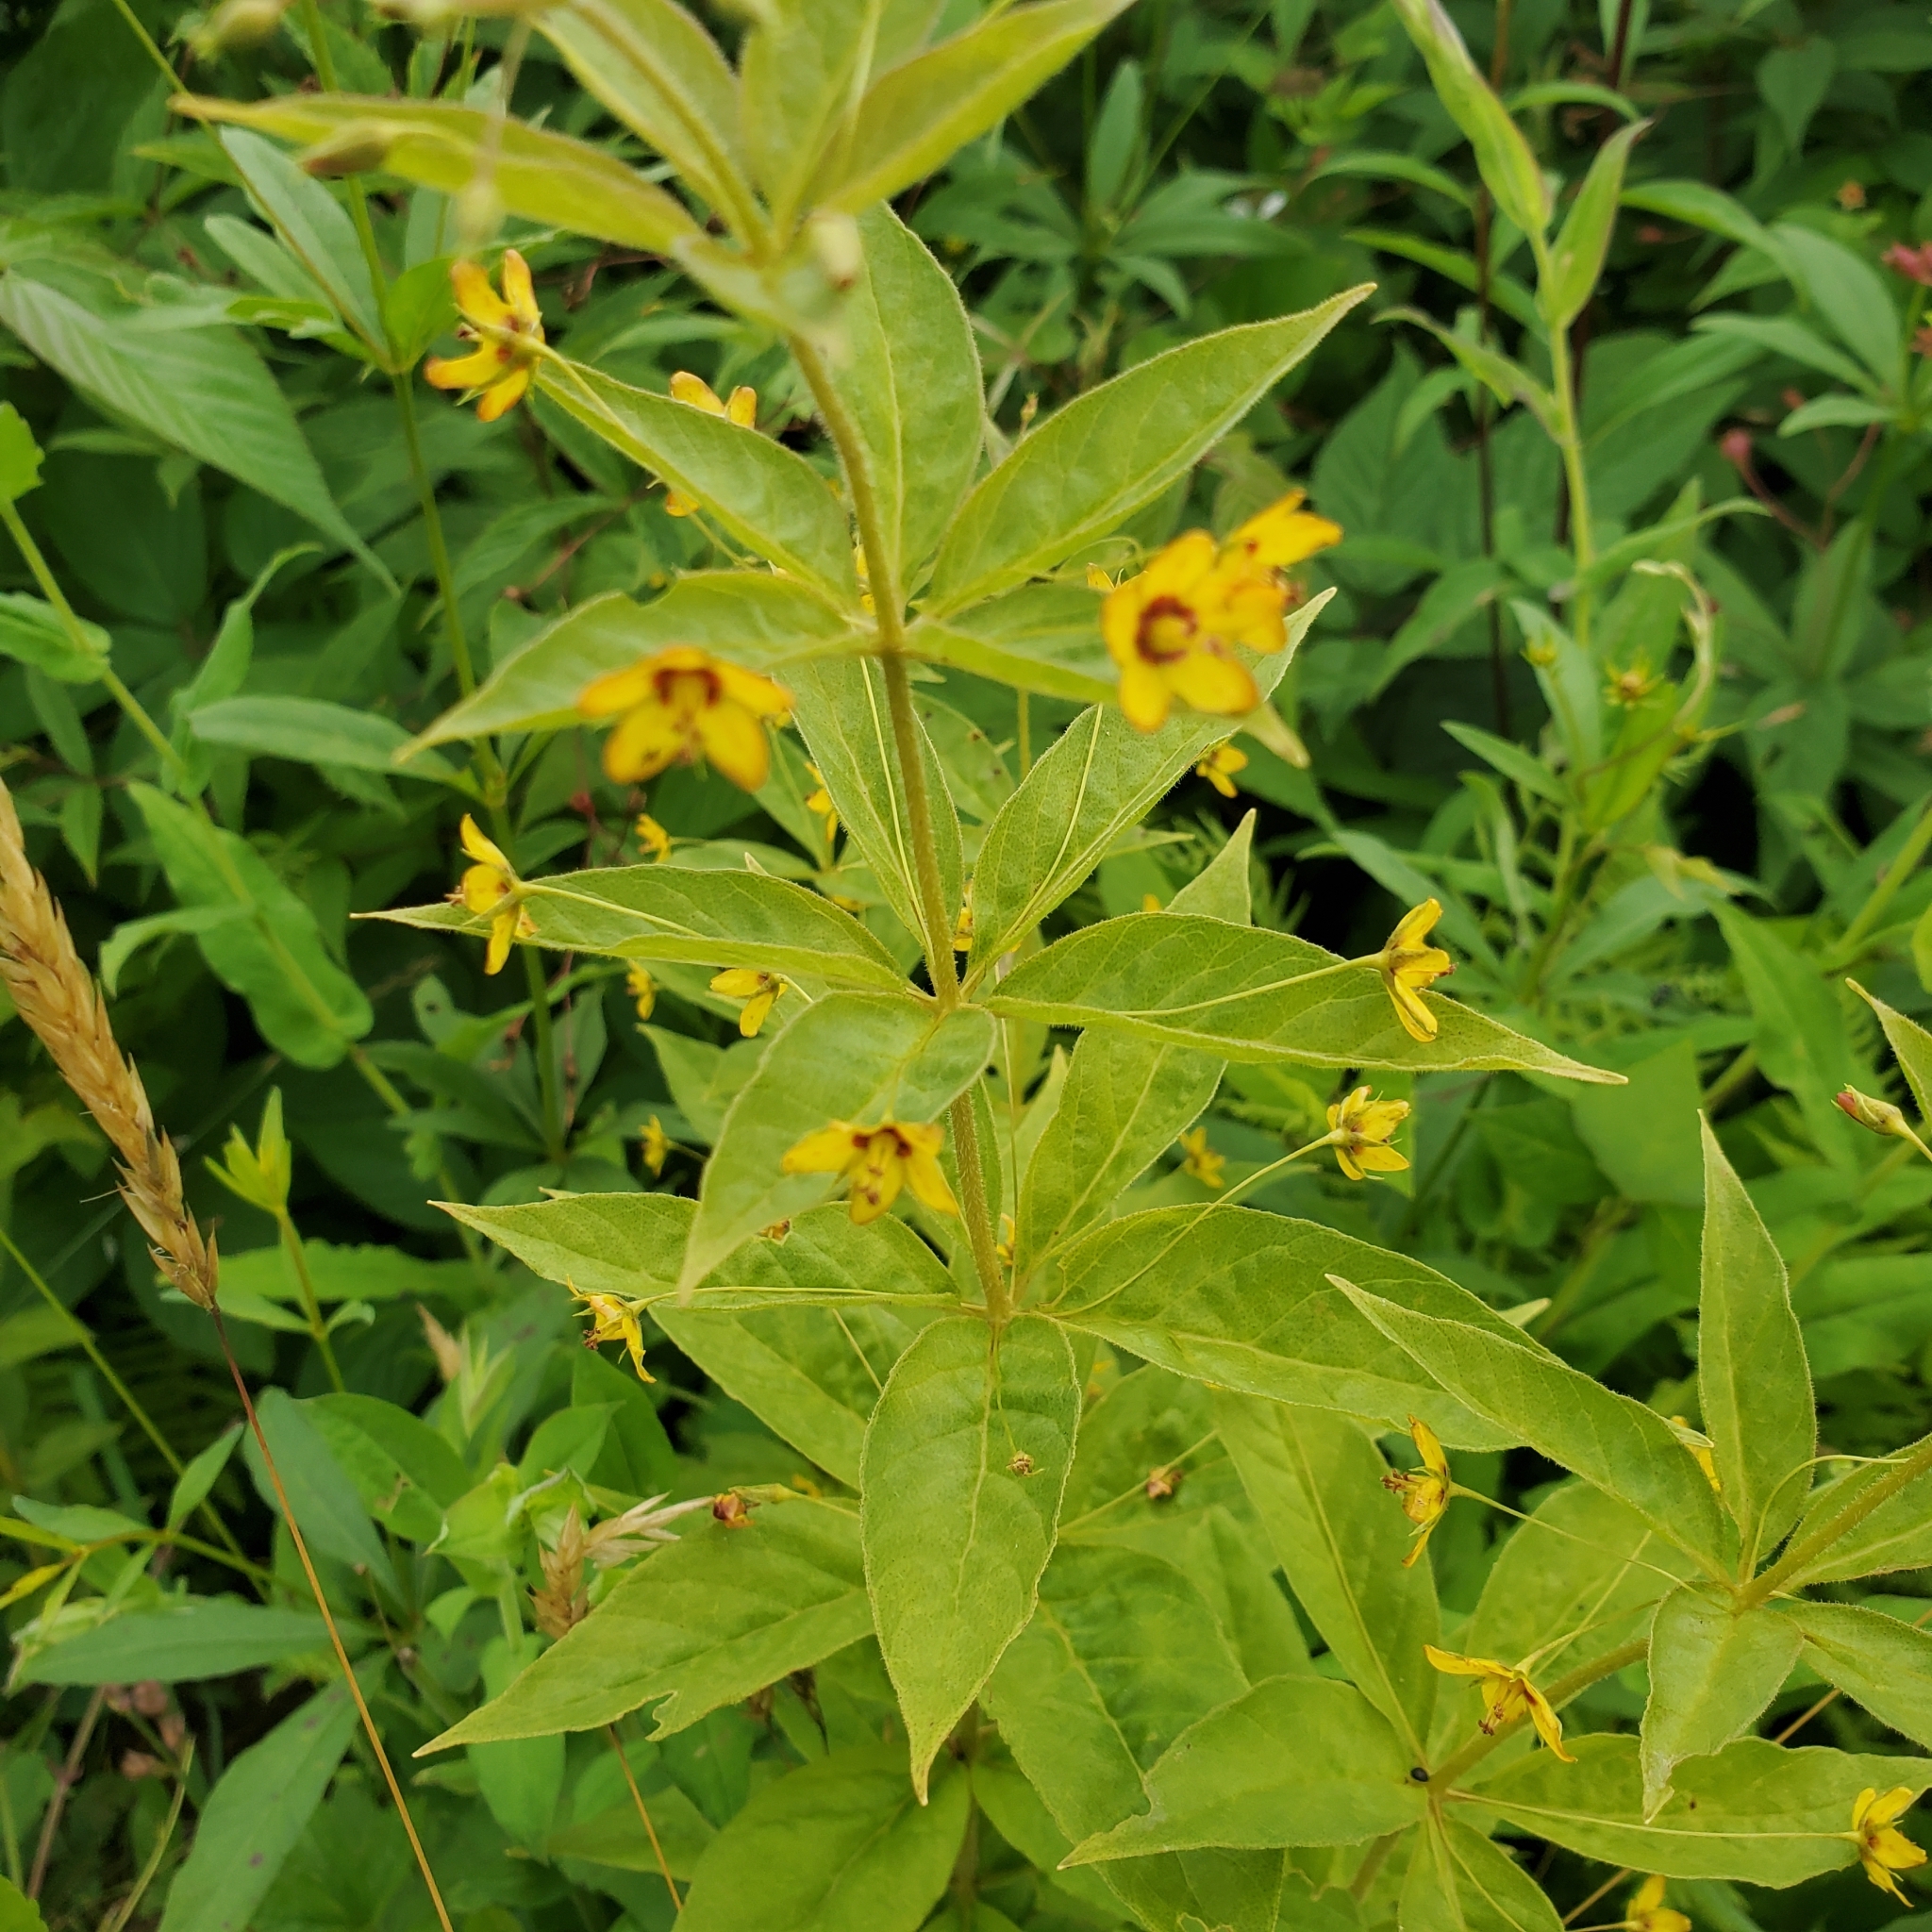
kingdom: Plantae
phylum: Tracheophyta
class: Magnoliopsida
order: Ericales
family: Primulaceae
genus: Lysimachia
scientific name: Lysimachia quadrifolia
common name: Whorled loosestrife
